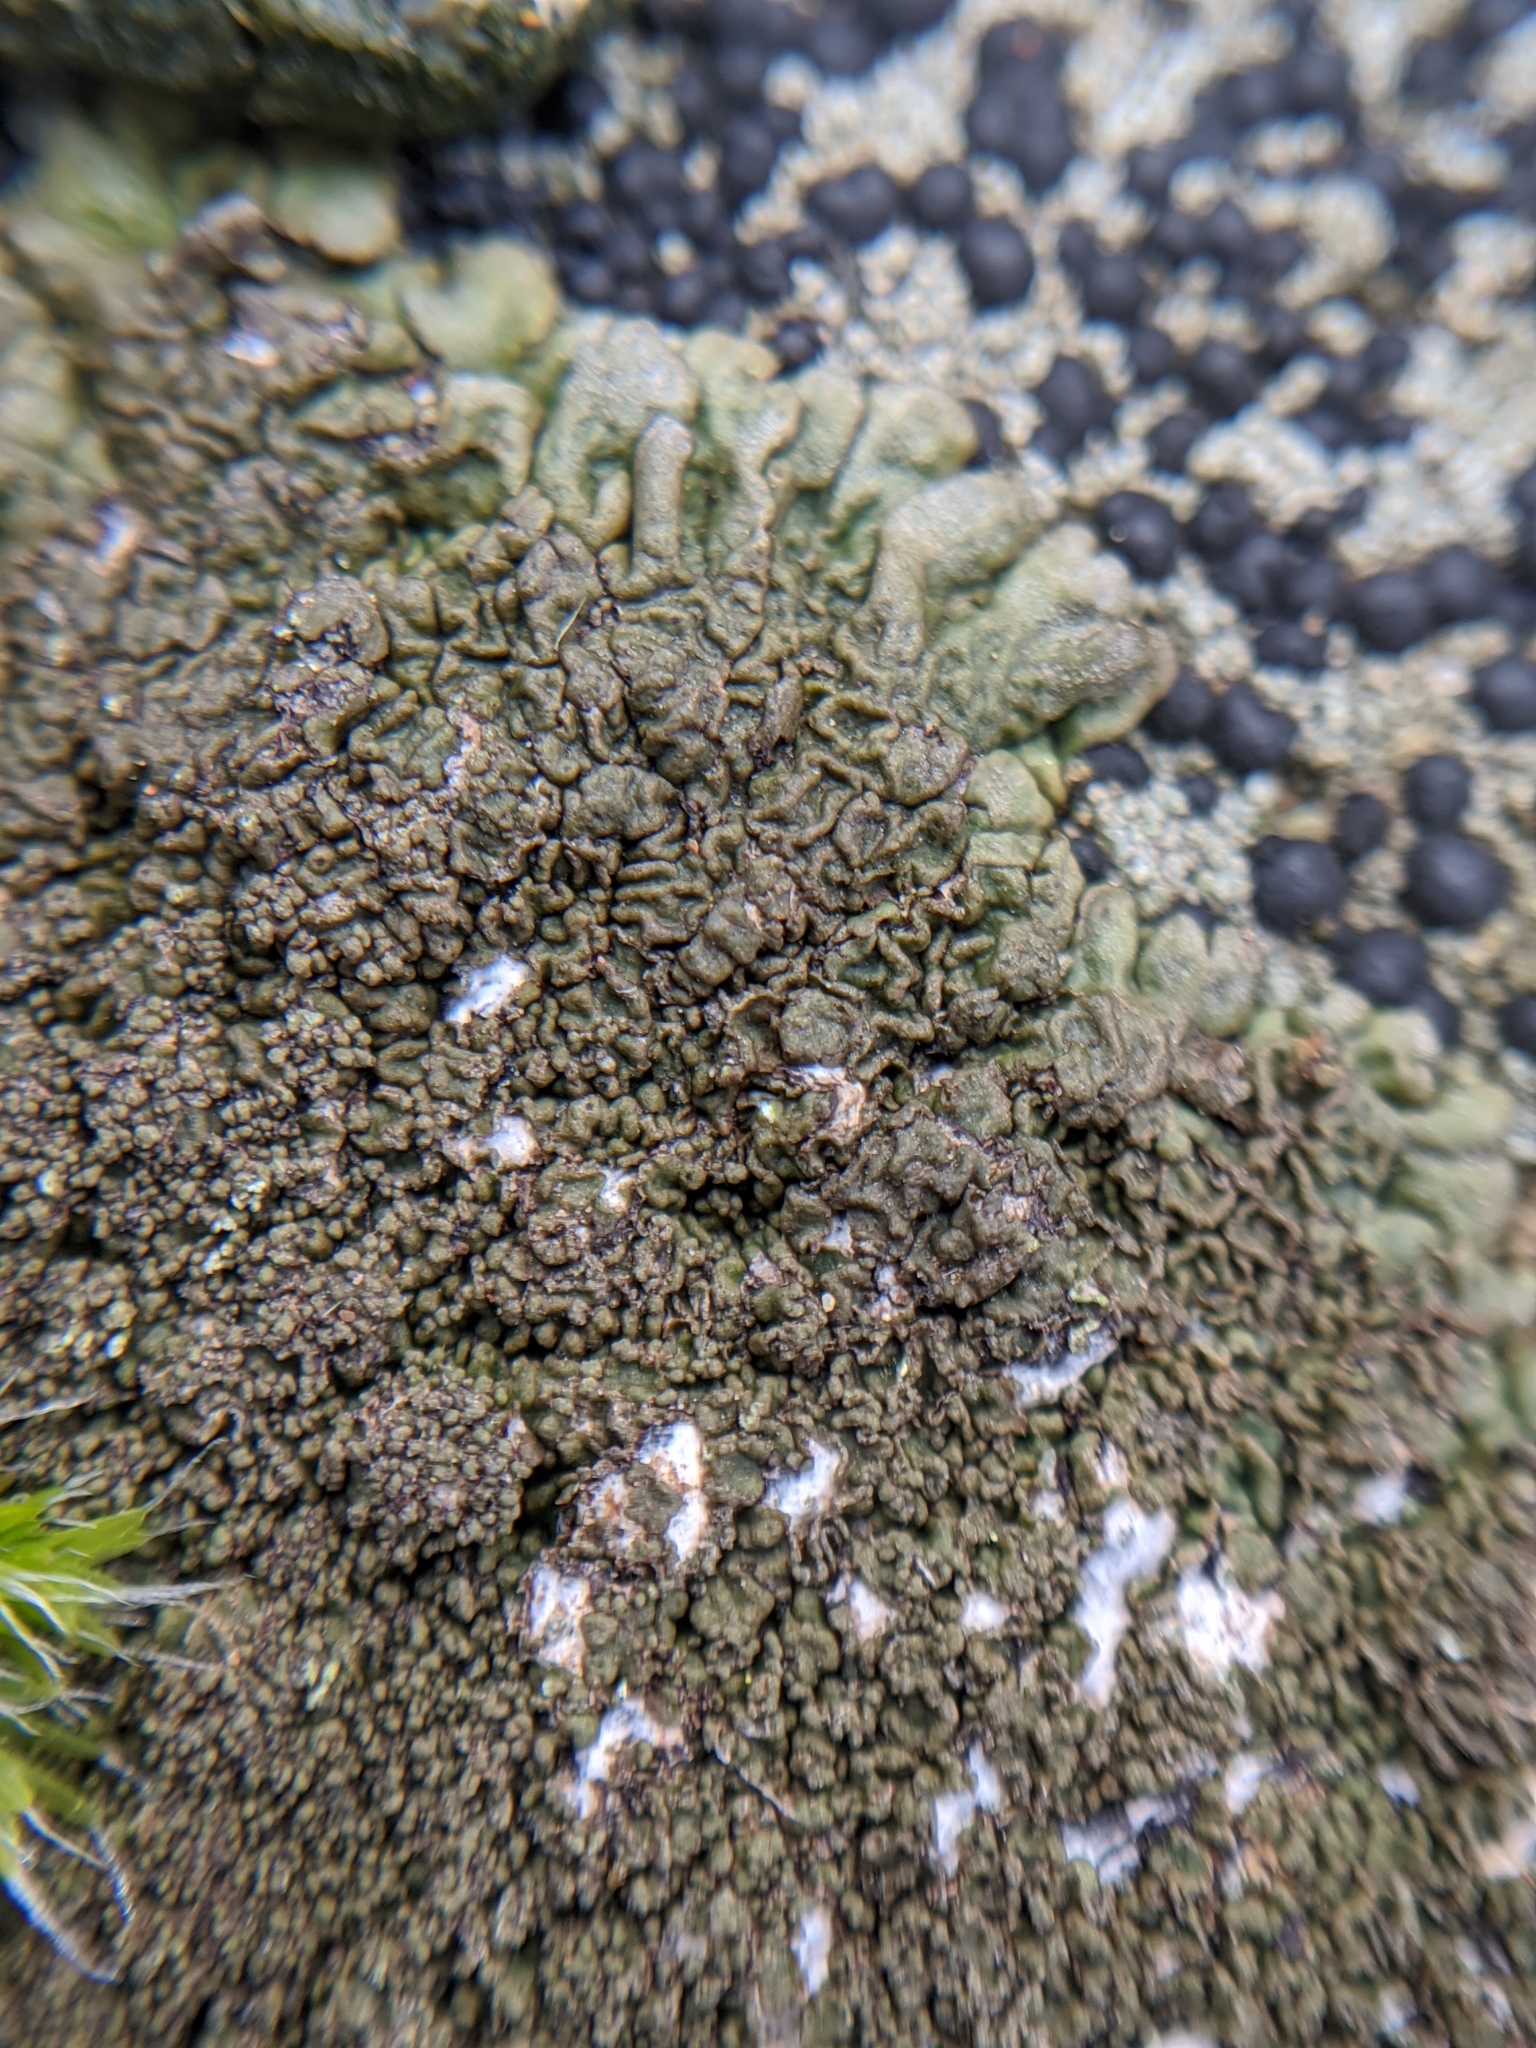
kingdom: Fungi
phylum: Ascomycota
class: Lecanoromycetes
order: Lecanorales
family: Parmeliaceae
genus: Xanthoparmelia
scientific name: Xanthoparmelia subhosseana
